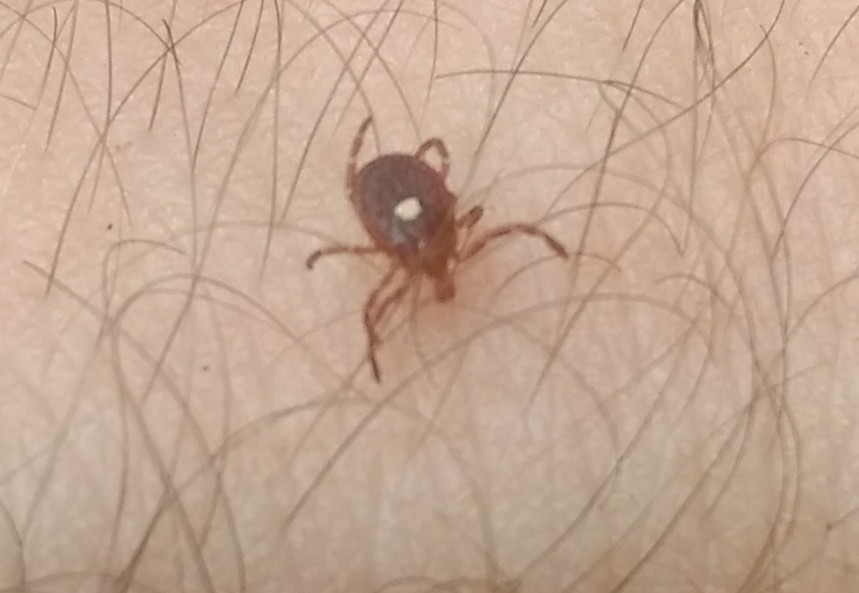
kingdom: Animalia
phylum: Arthropoda
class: Arachnida
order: Ixodida
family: Ixodidae
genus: Amblyomma
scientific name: Amblyomma americanum
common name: Lone star tick
